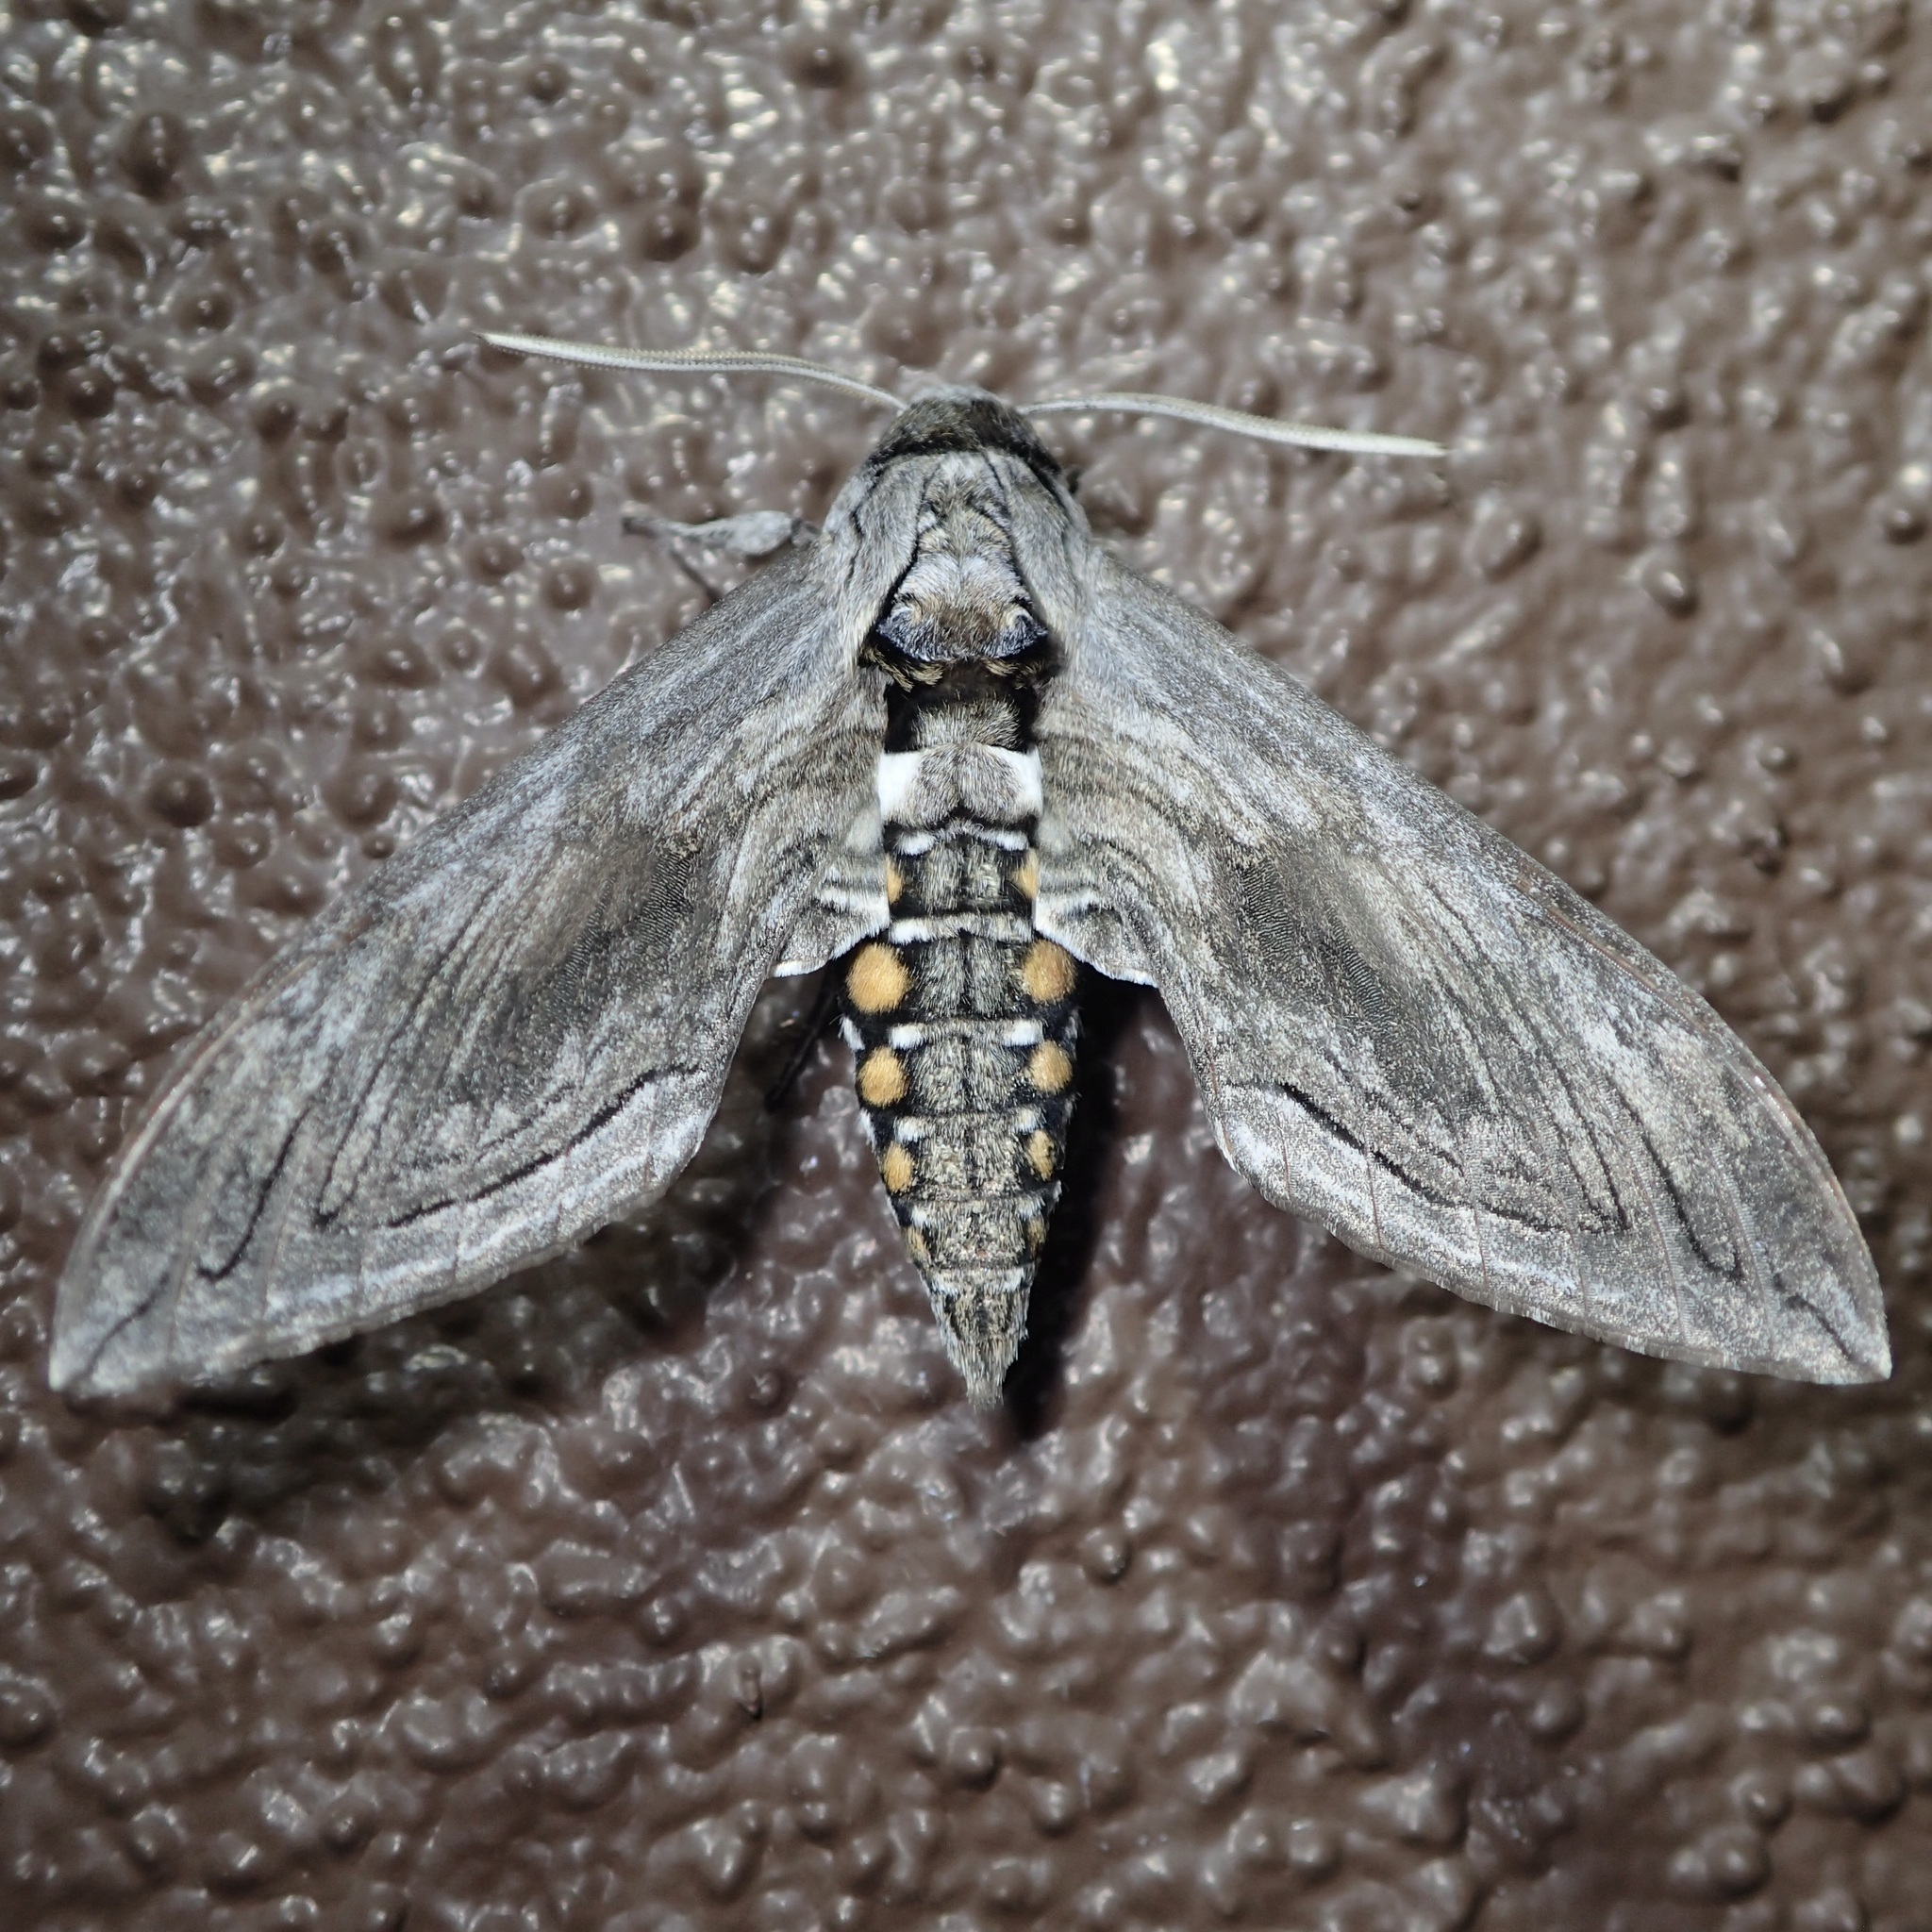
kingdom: Animalia
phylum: Arthropoda
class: Insecta
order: Lepidoptera
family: Sphingidae
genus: Manduca
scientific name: Manduca quinquemaculatus
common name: Five-spotted hawk-moth
